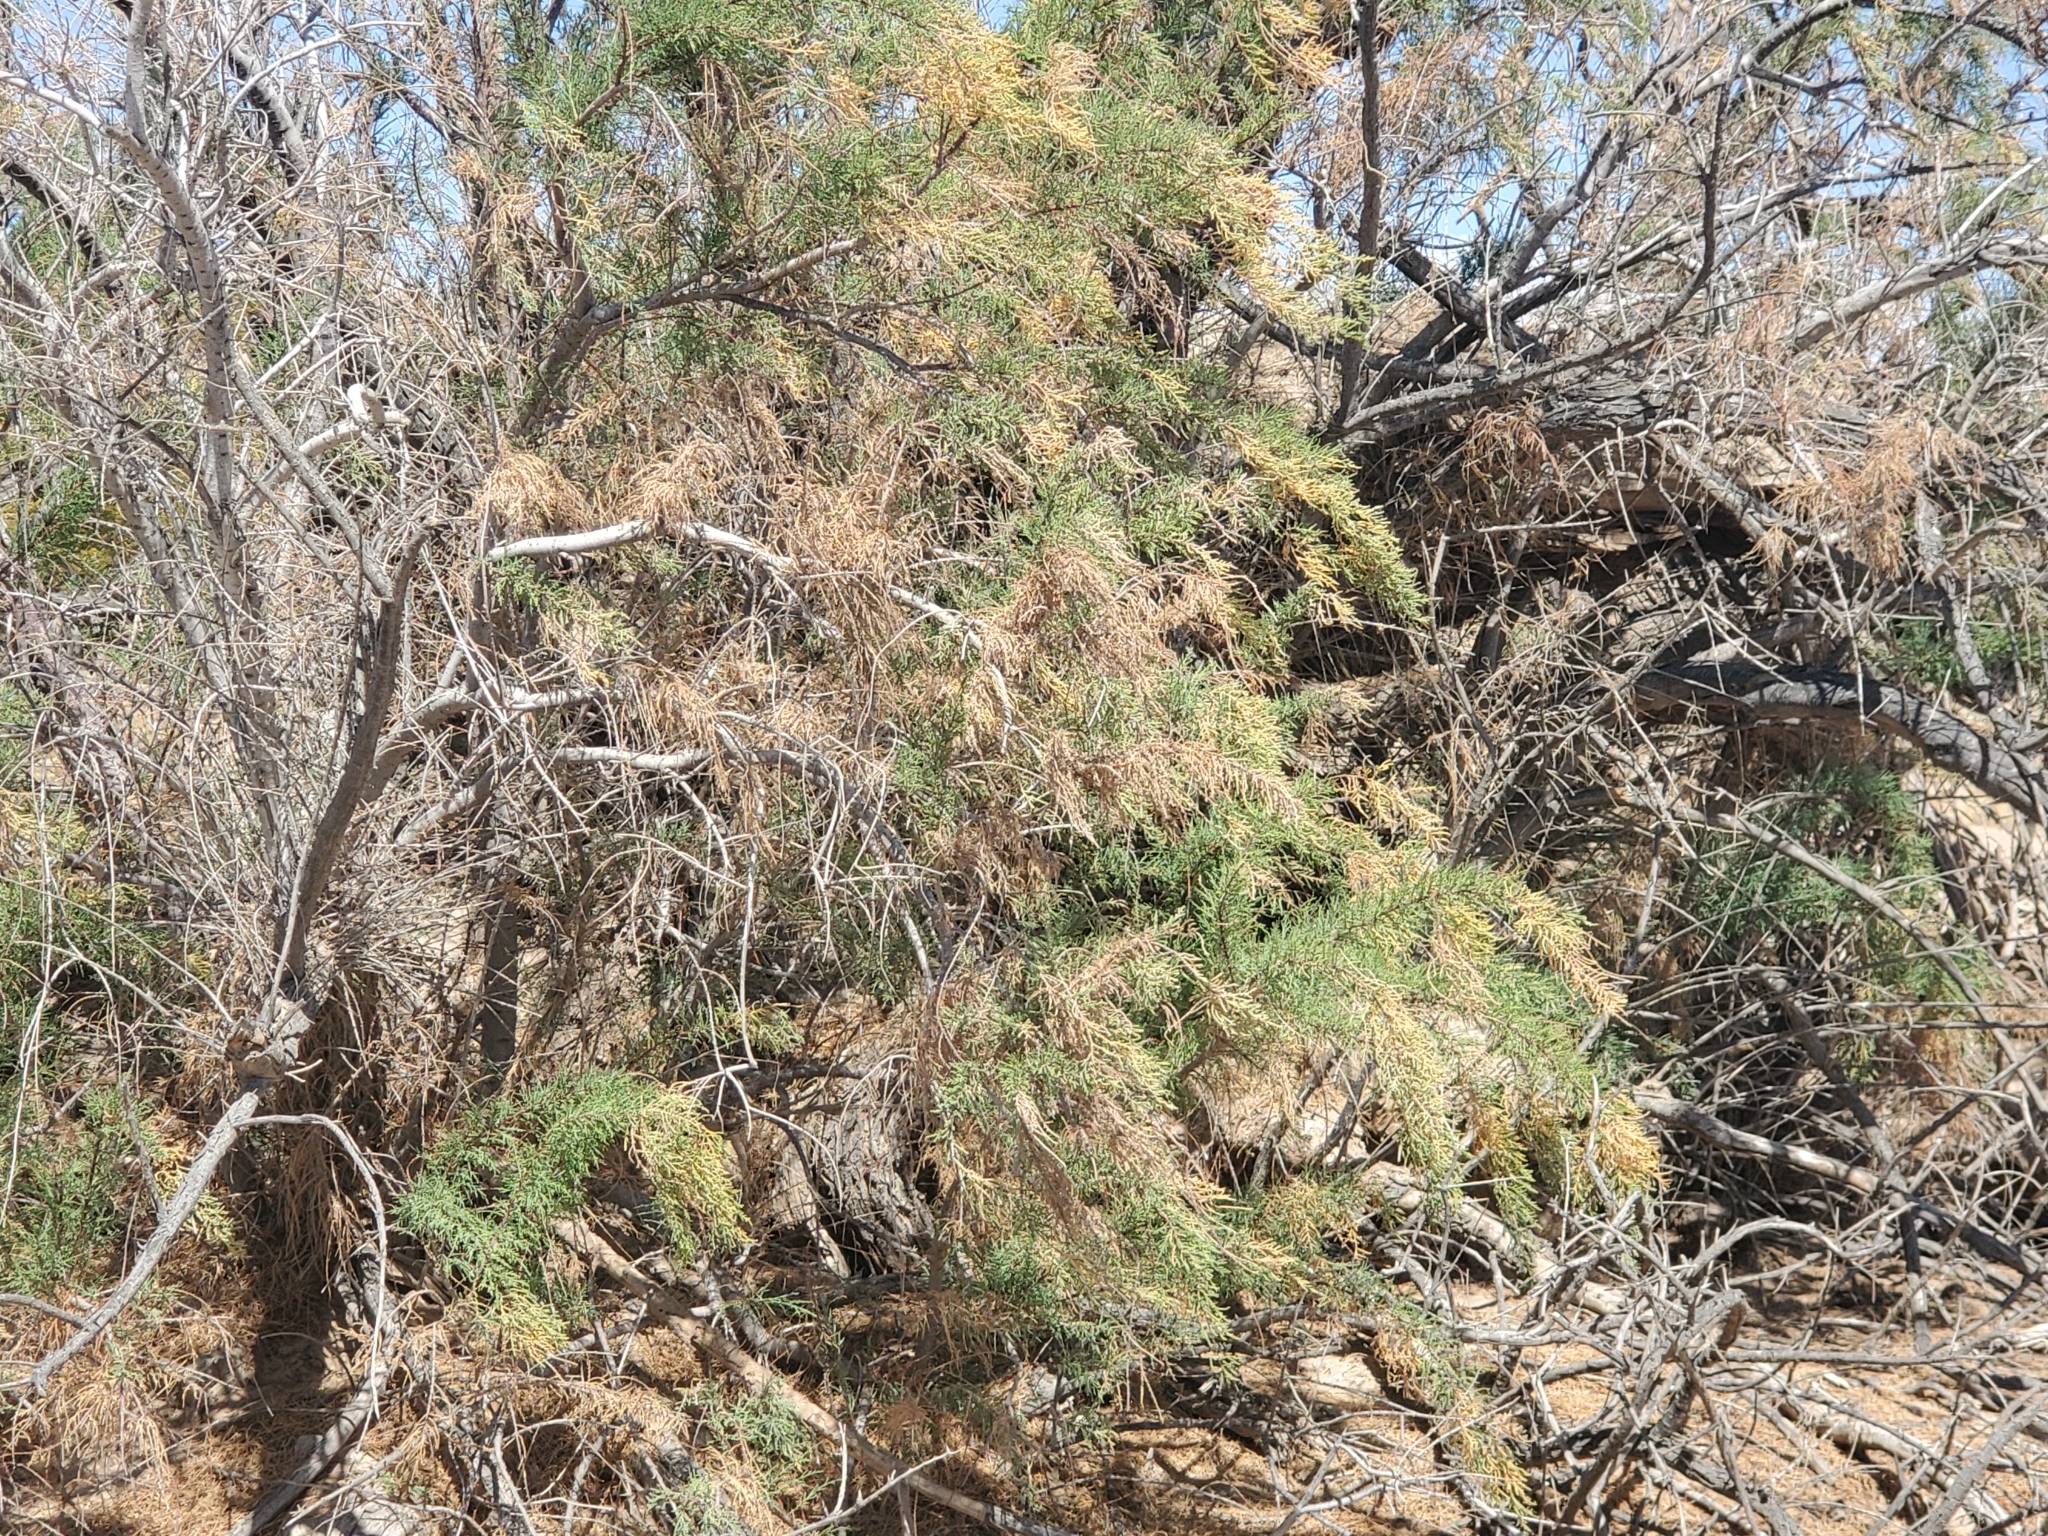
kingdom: Plantae
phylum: Tracheophyta
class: Magnoliopsida
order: Caryophyllales
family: Tamaricaceae
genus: Tamarix
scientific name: Tamarix ramosissima
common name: Pink tamarisk
